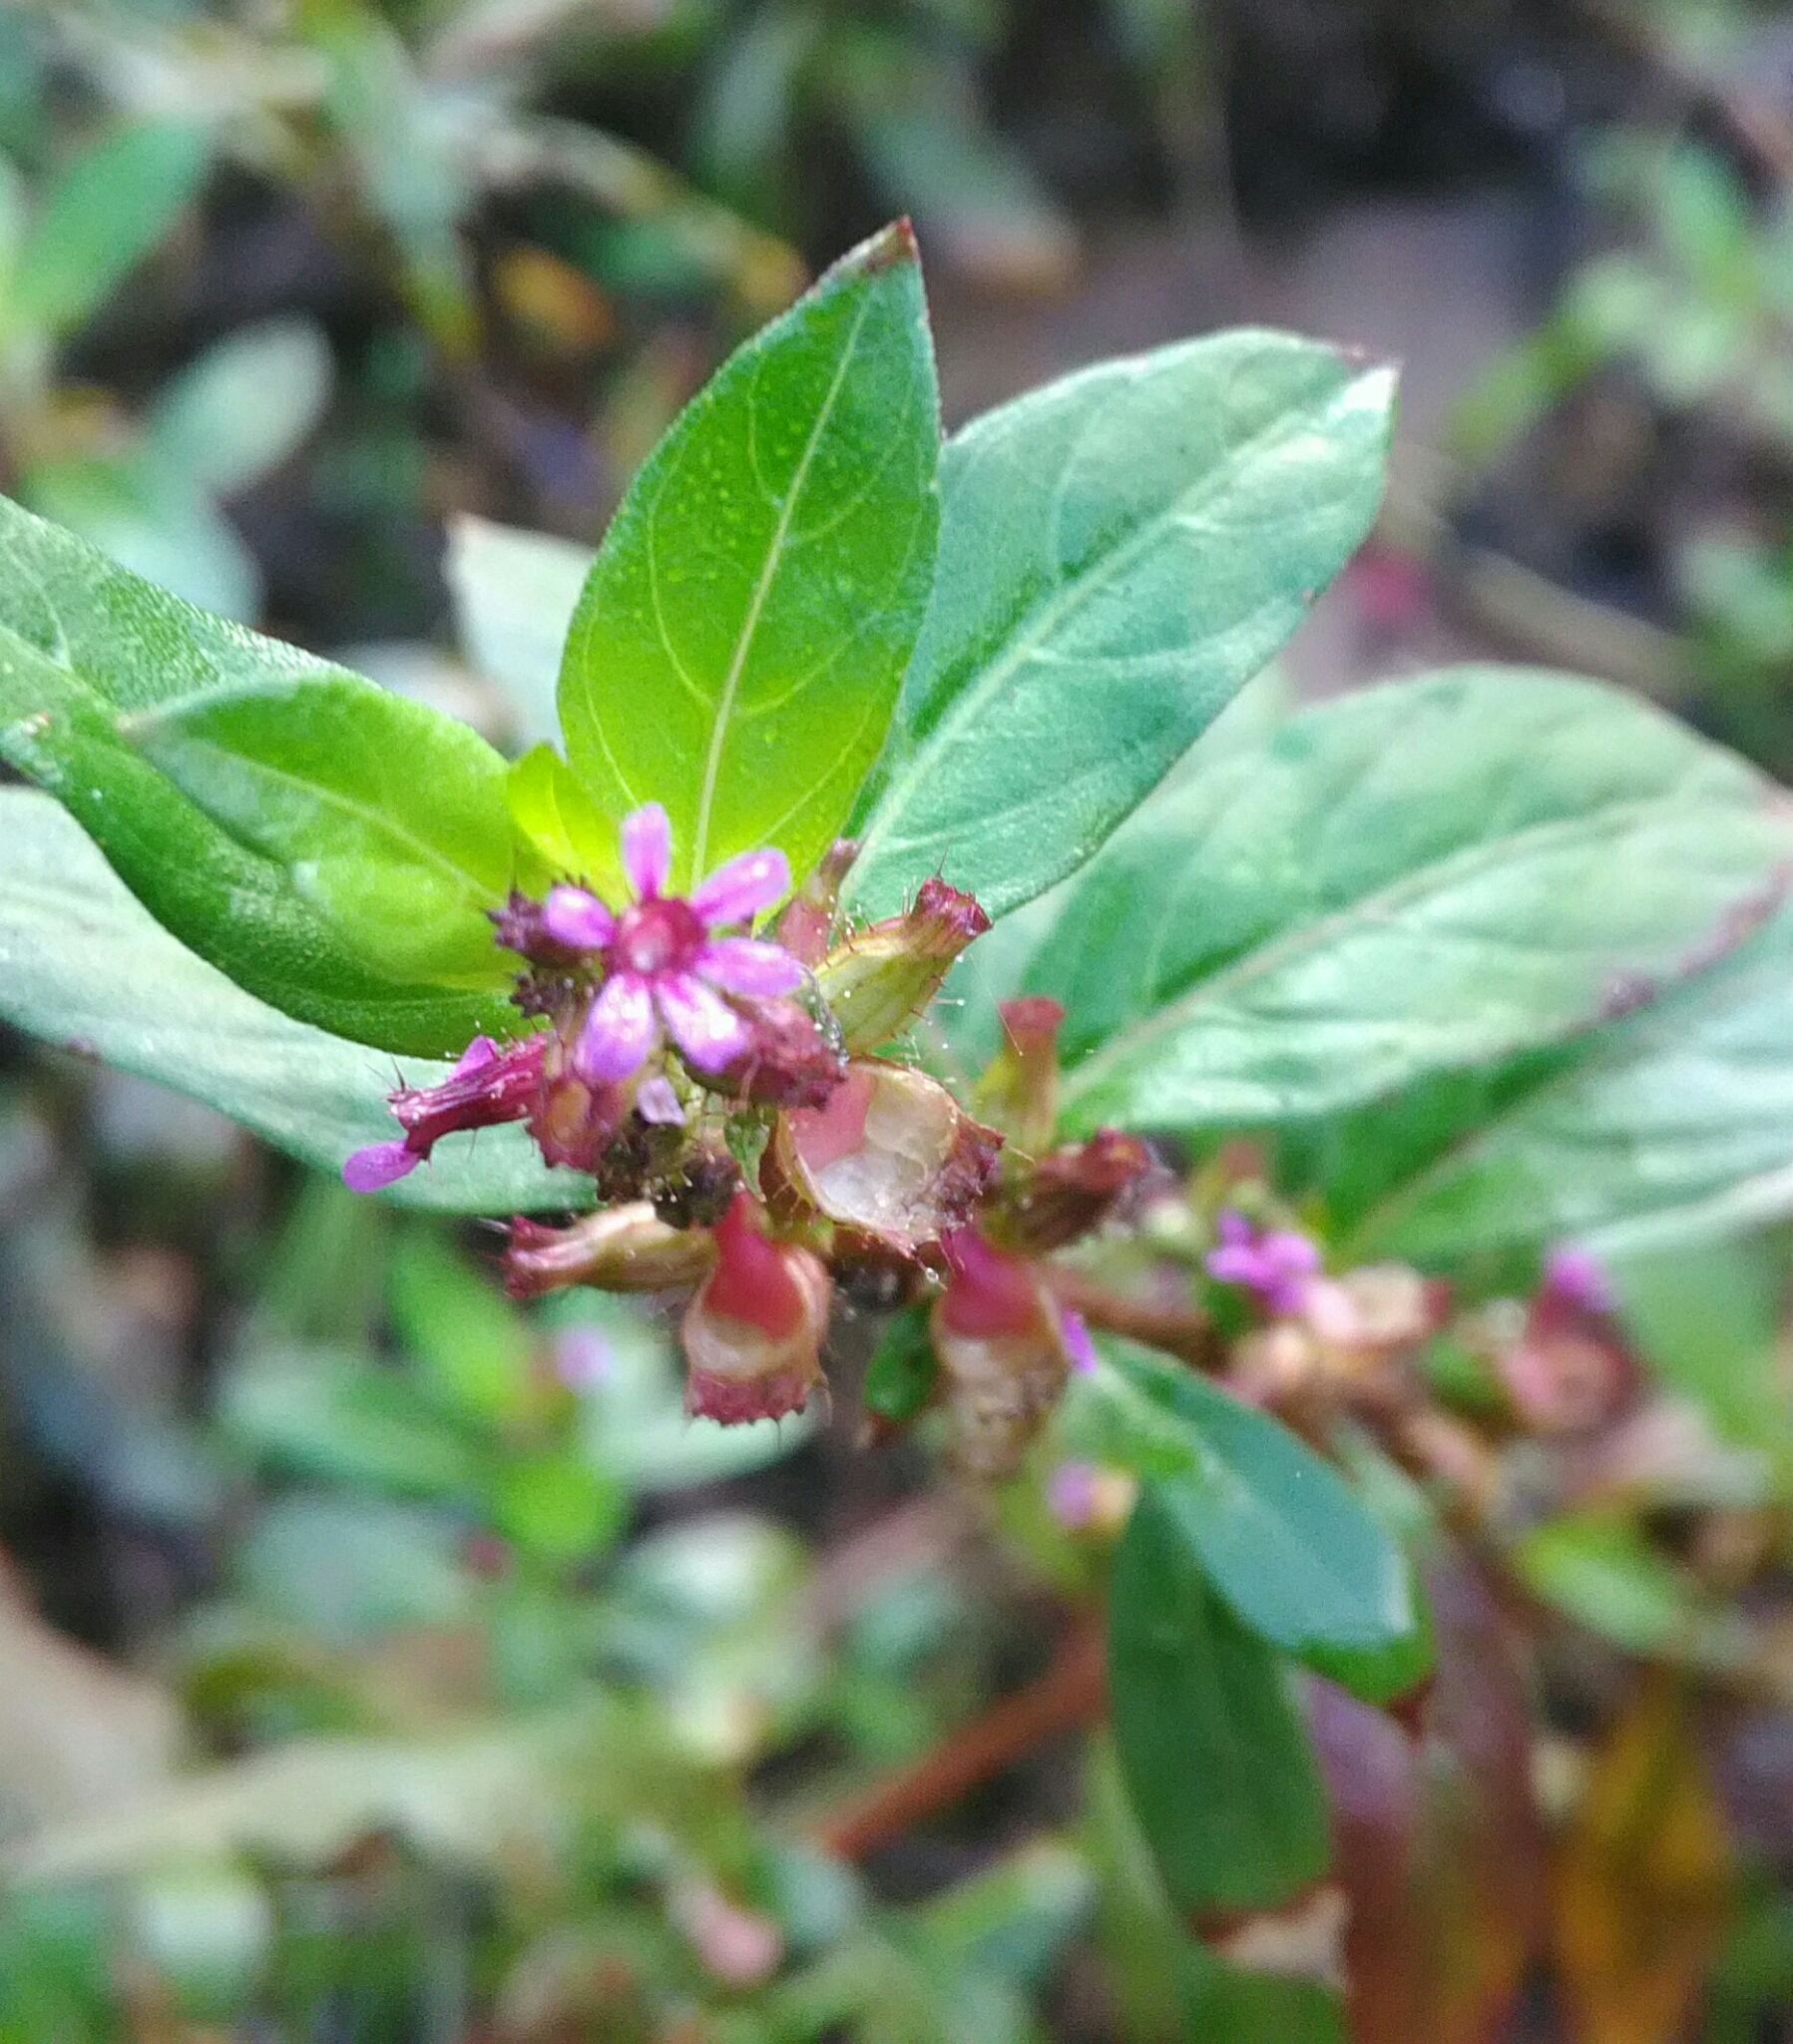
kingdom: Plantae
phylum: Tracheophyta
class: Magnoliopsida
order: Myrtales
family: Lythraceae
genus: Cuphea
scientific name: Cuphea carthagenensis
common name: Colombian waxweed
